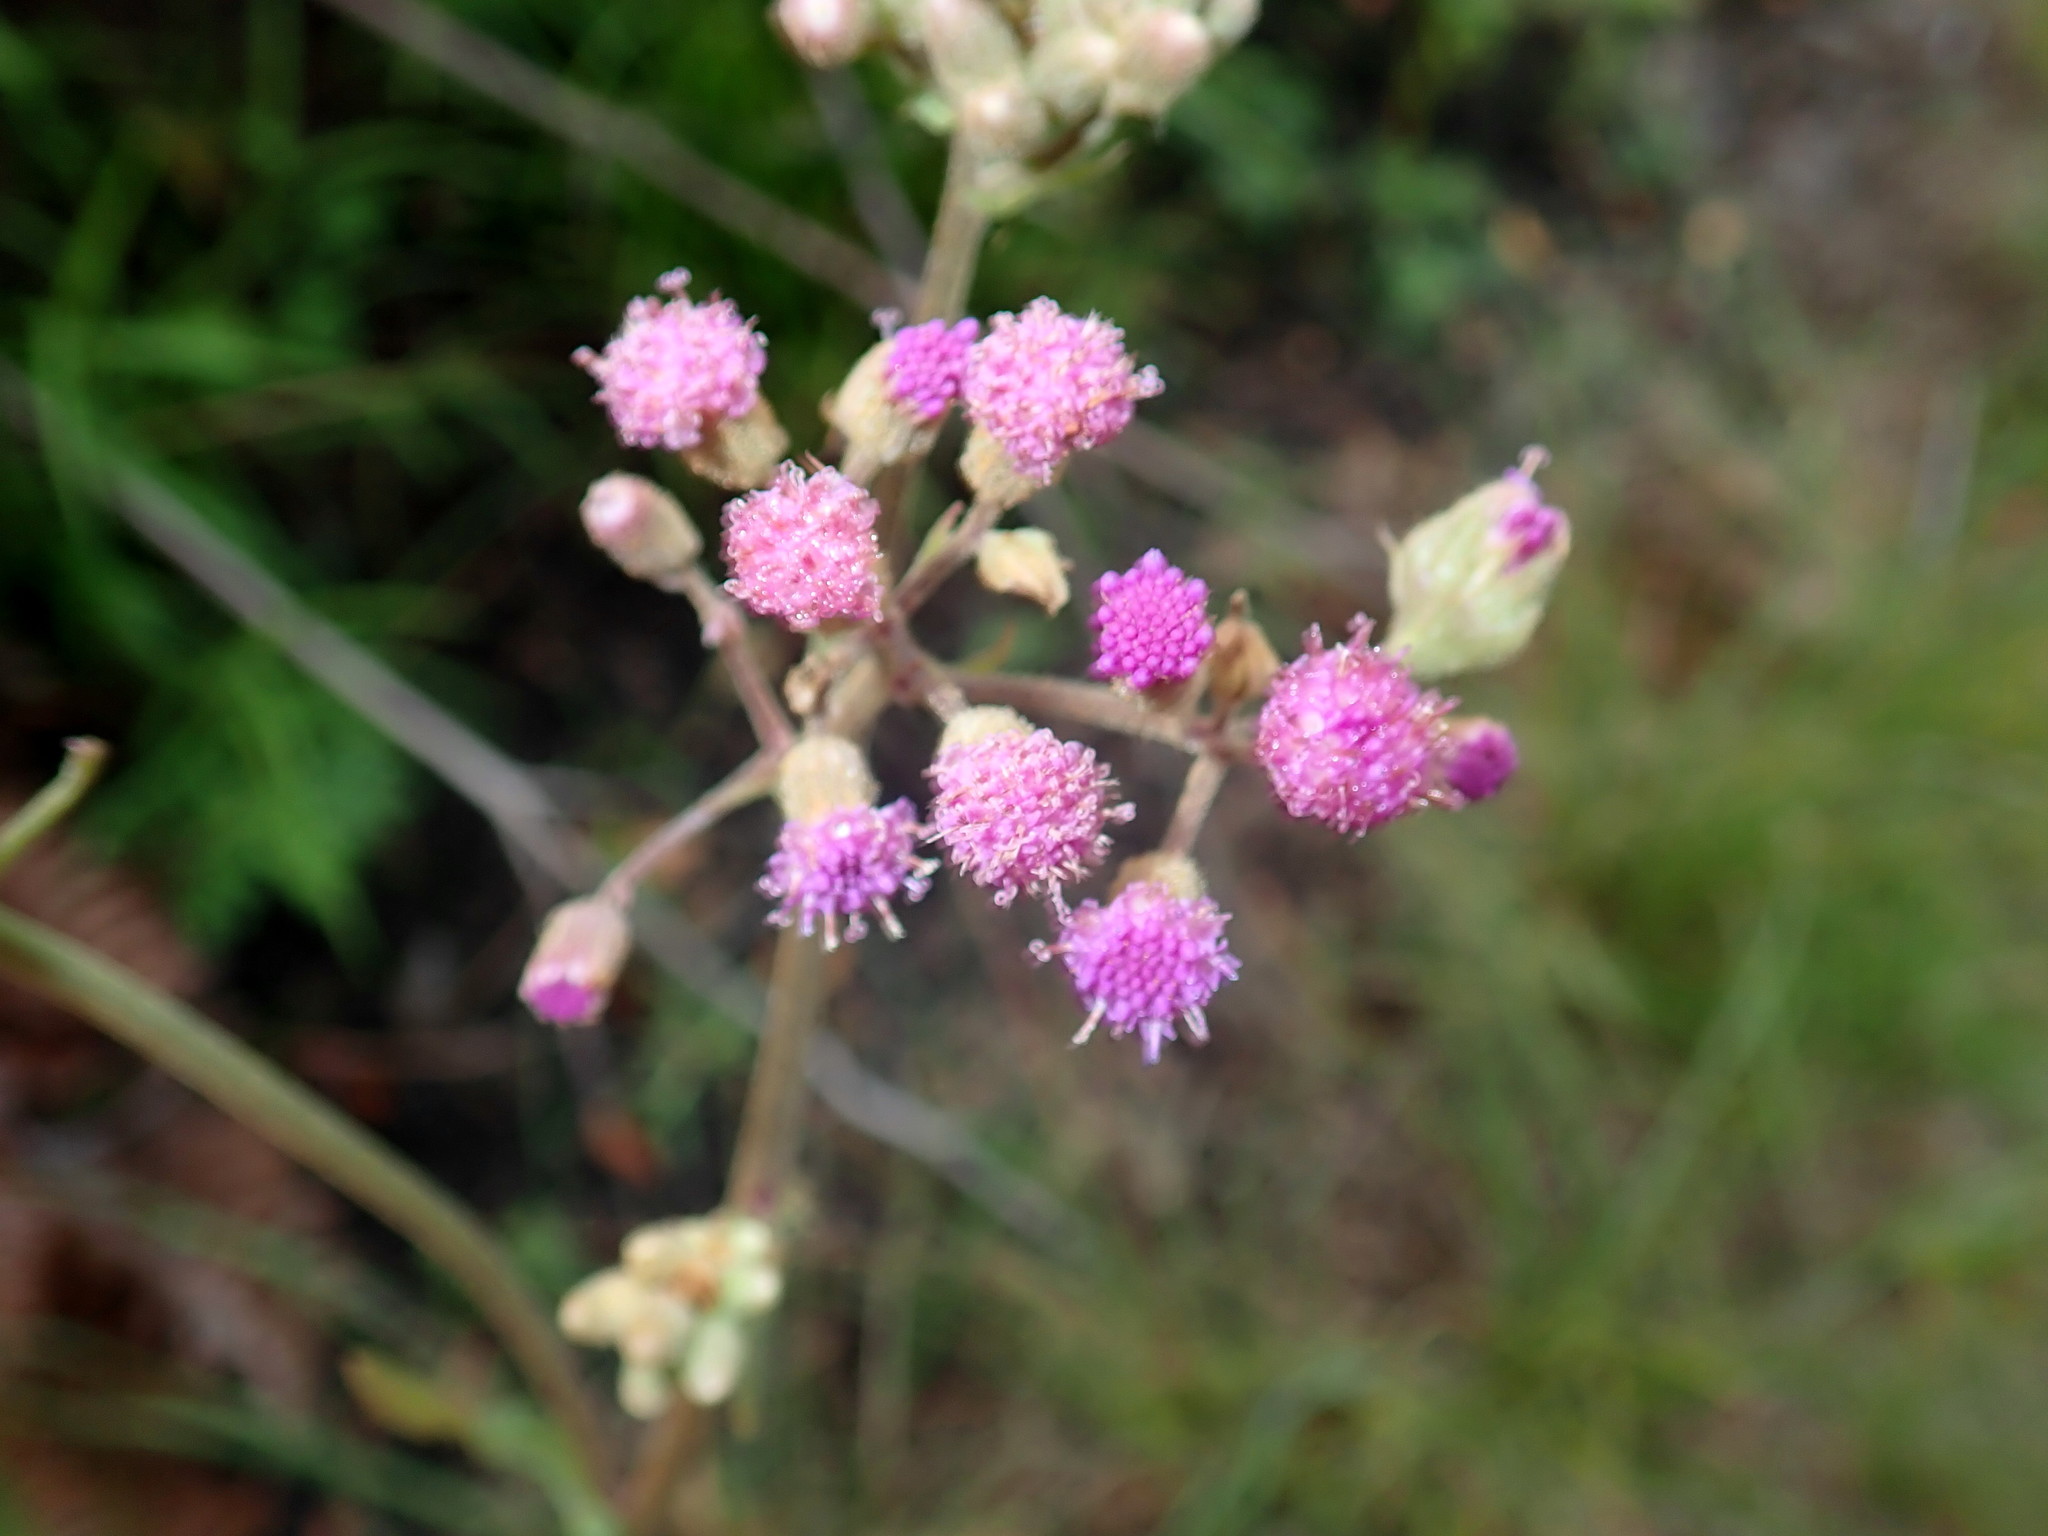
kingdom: Plantae
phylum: Tracheophyta
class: Magnoliopsida
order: Asterales
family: Asteraceae
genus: Senecio
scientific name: Senecio purpureus
